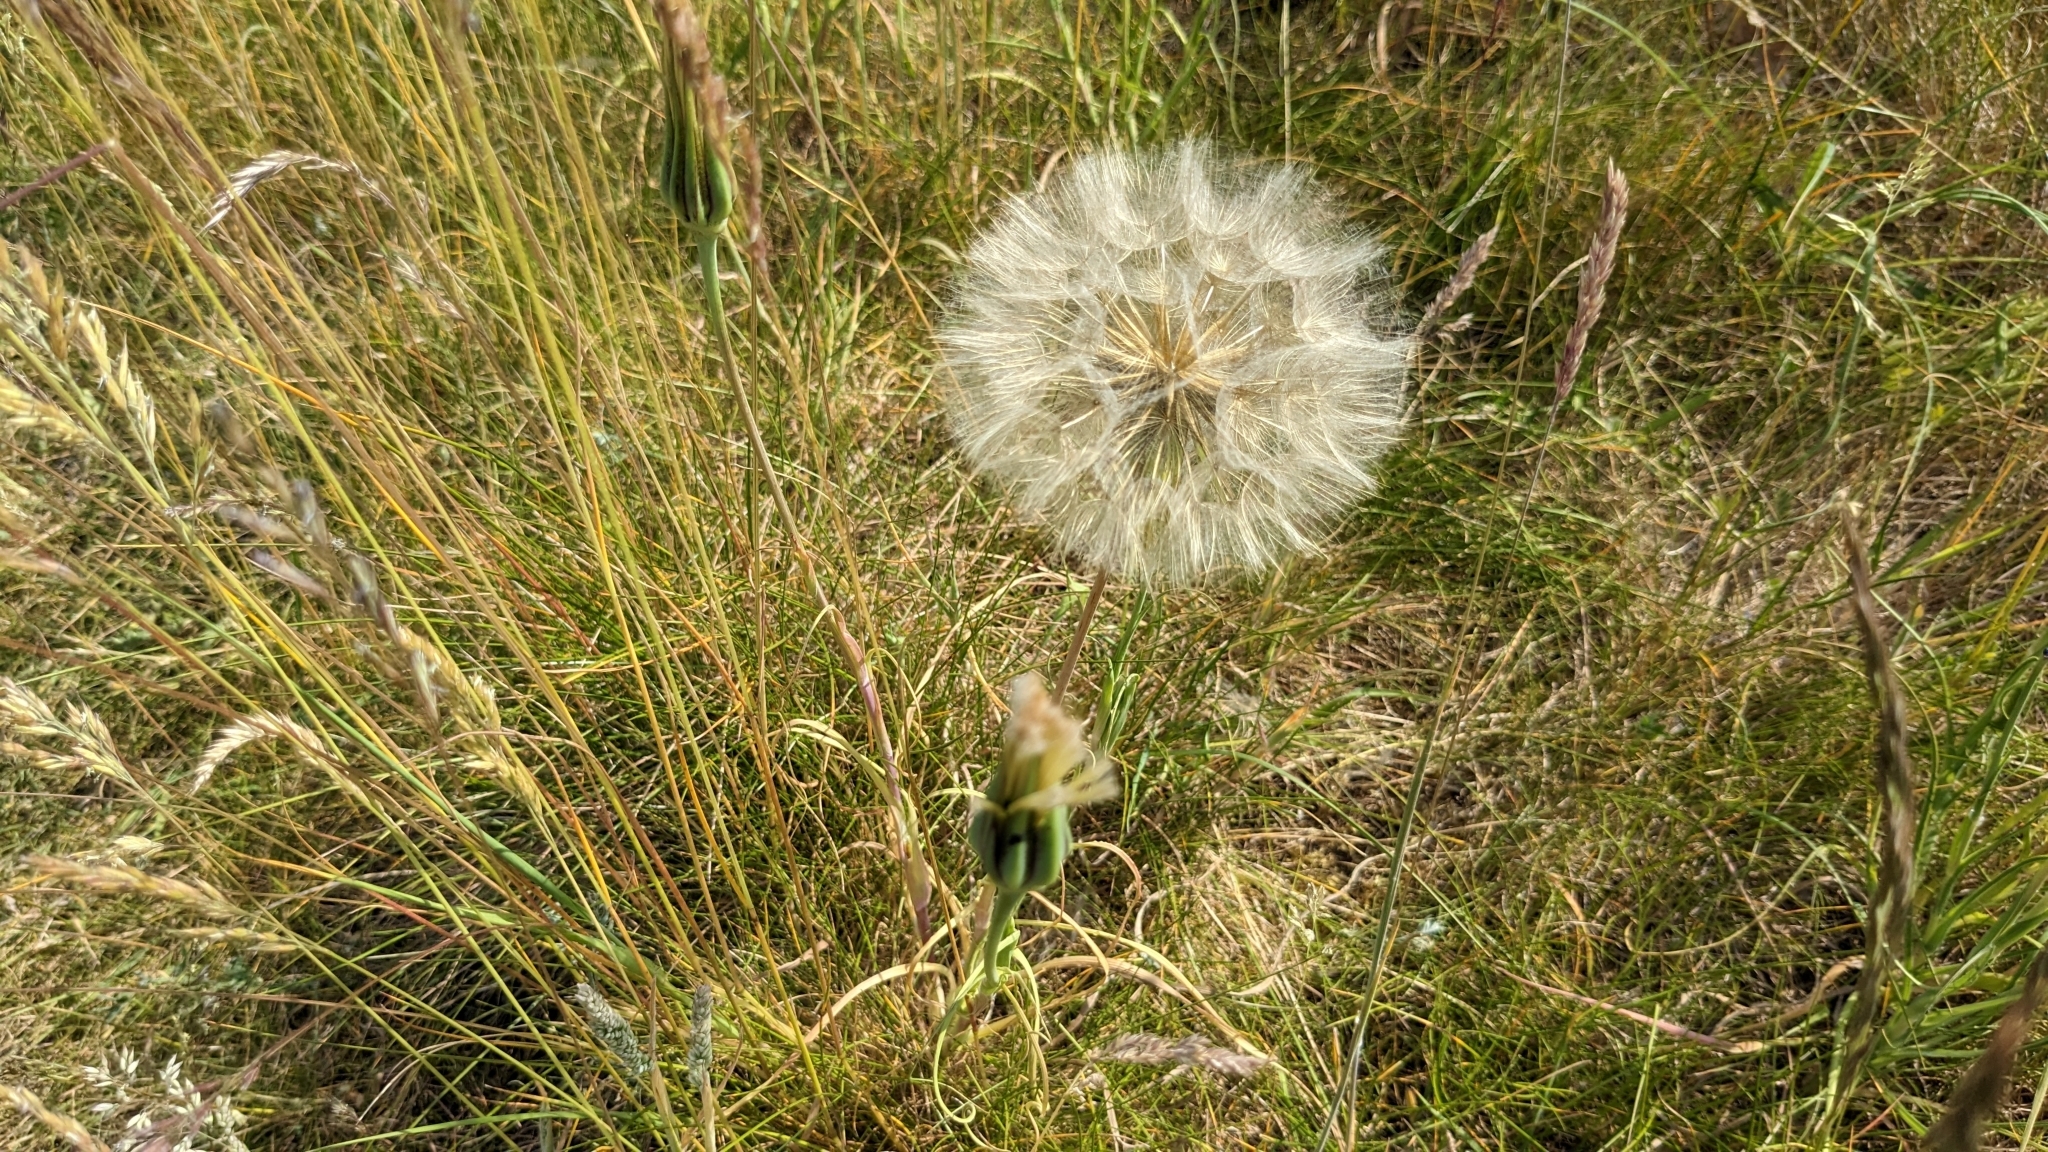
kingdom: Plantae
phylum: Tracheophyta
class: Magnoliopsida
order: Asterales
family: Asteraceae
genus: Tragopogon
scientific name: Tragopogon pratensis
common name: Goat's-beard
